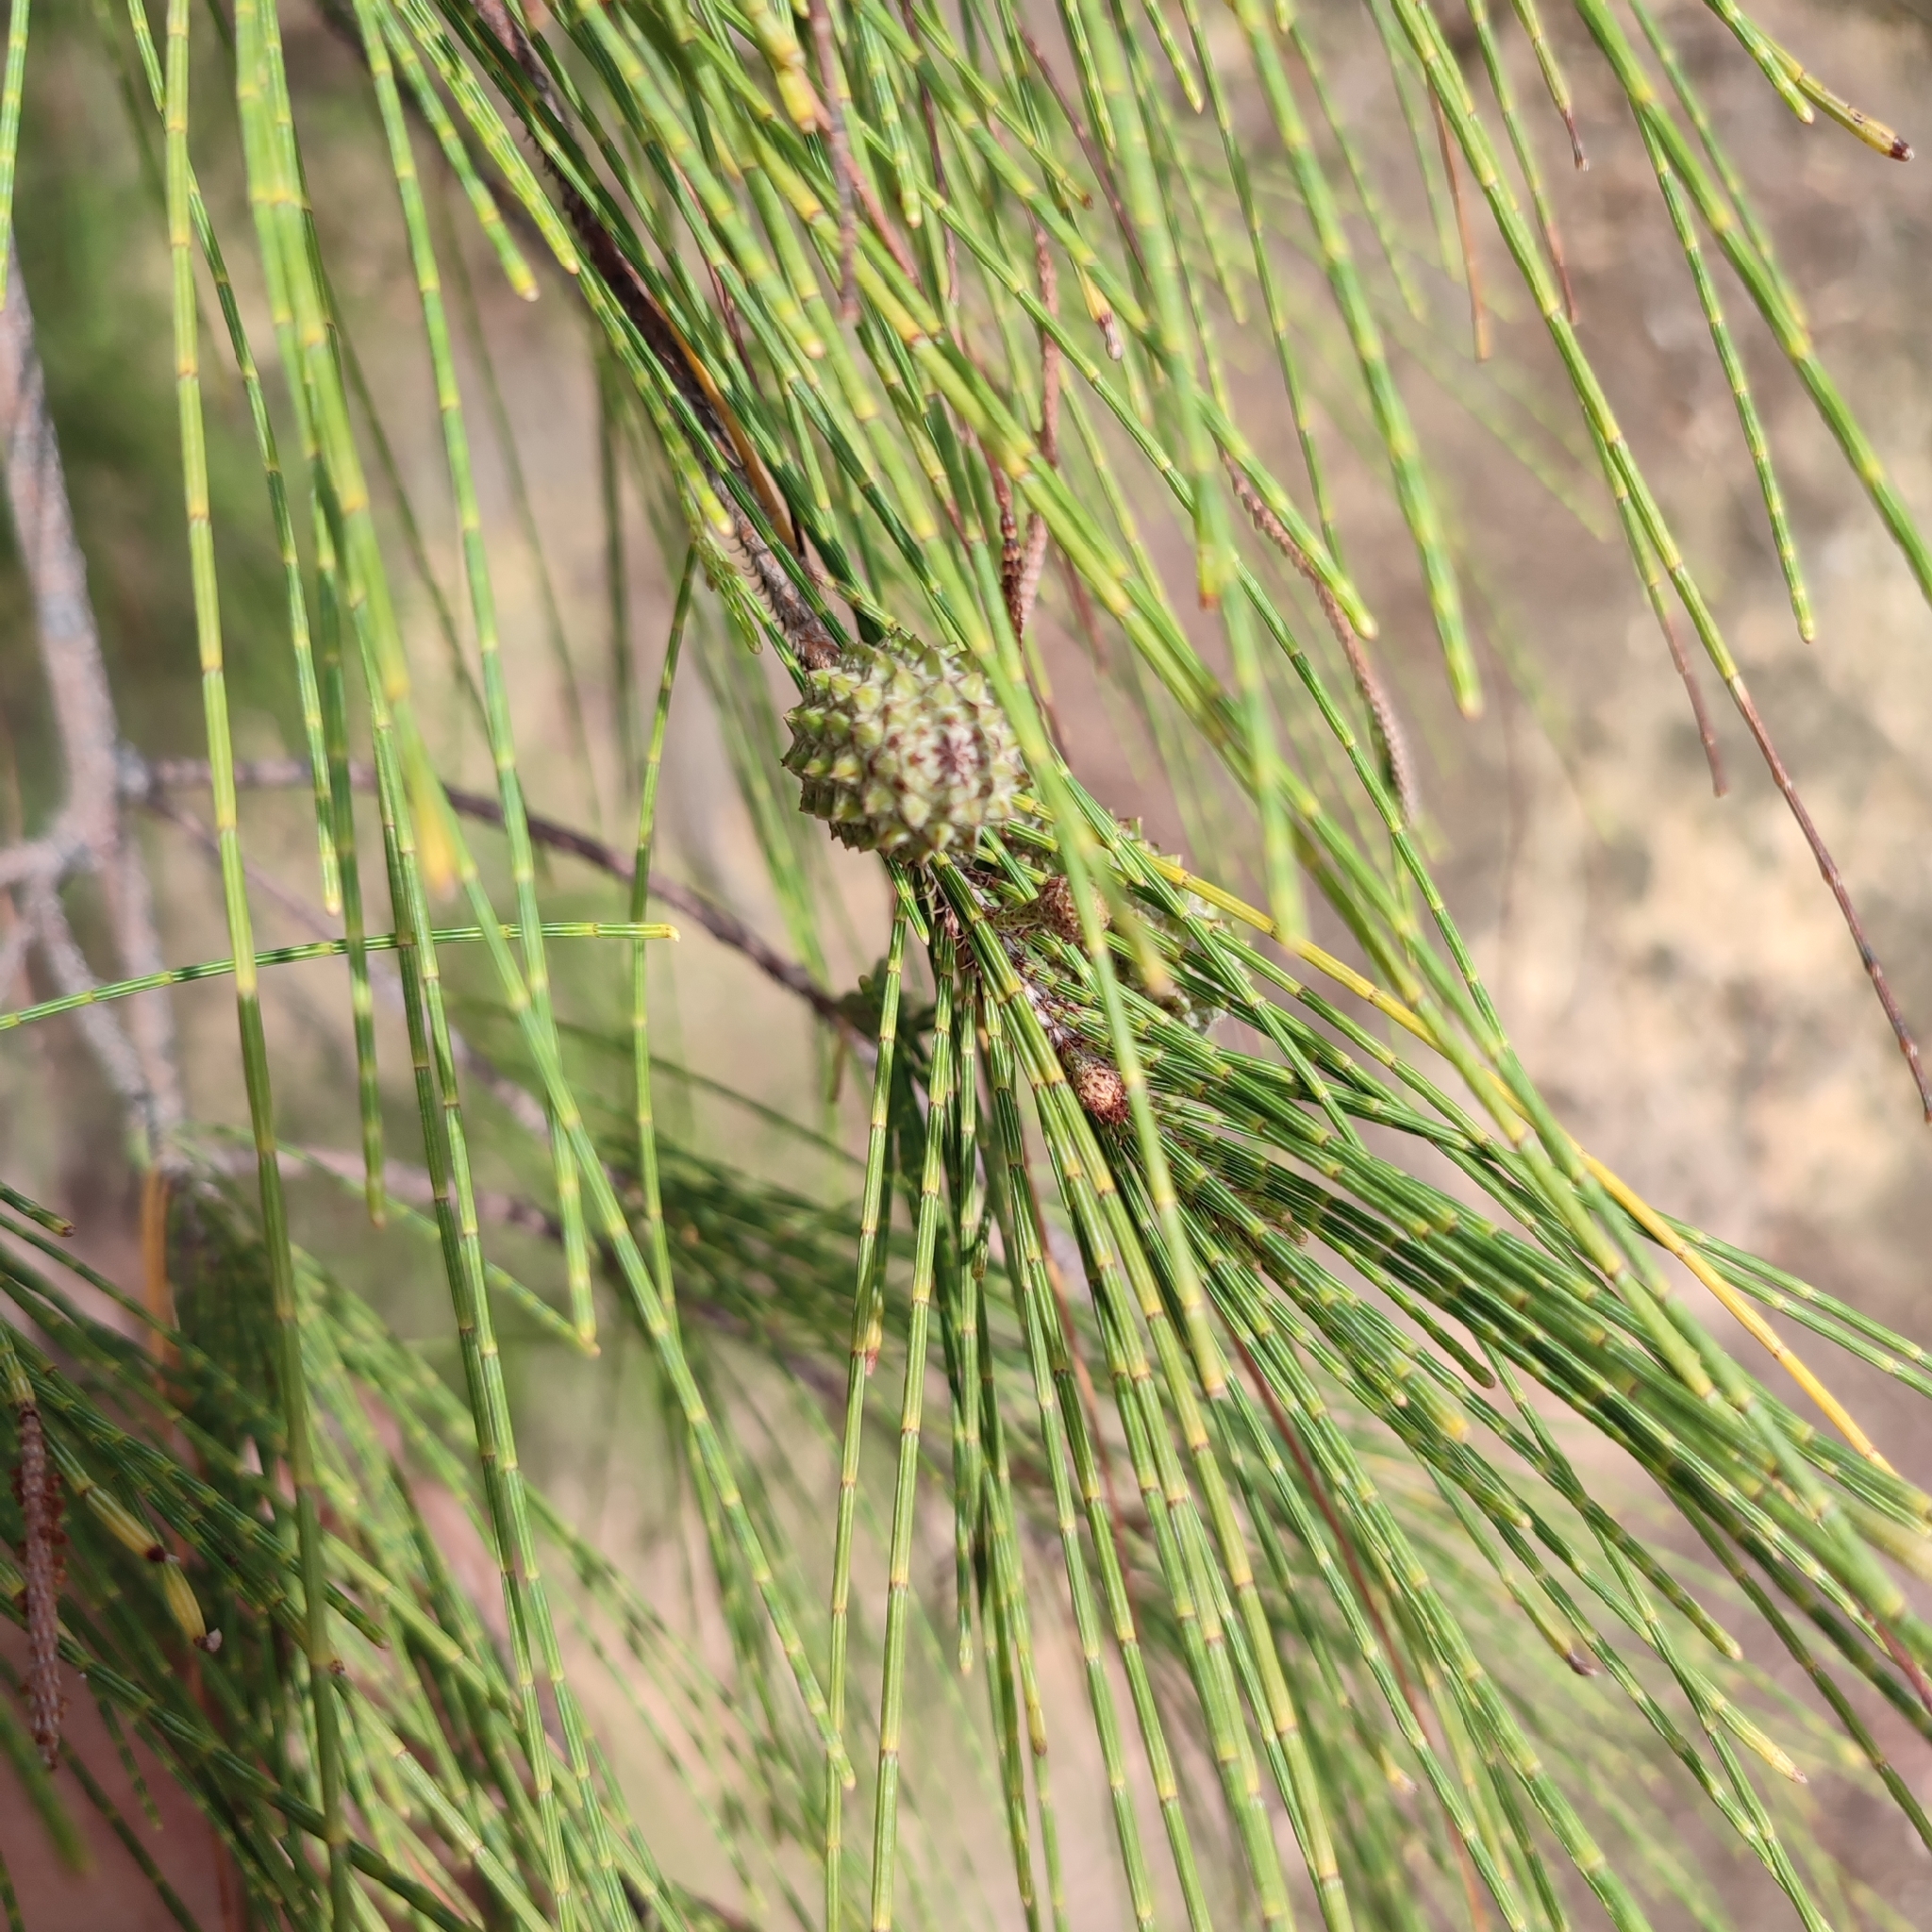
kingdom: Plantae
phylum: Tracheophyta
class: Magnoliopsida
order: Fagales
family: Casuarinaceae
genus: Casuarina
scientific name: Casuarina equisetifolia
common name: Beach sheoak
